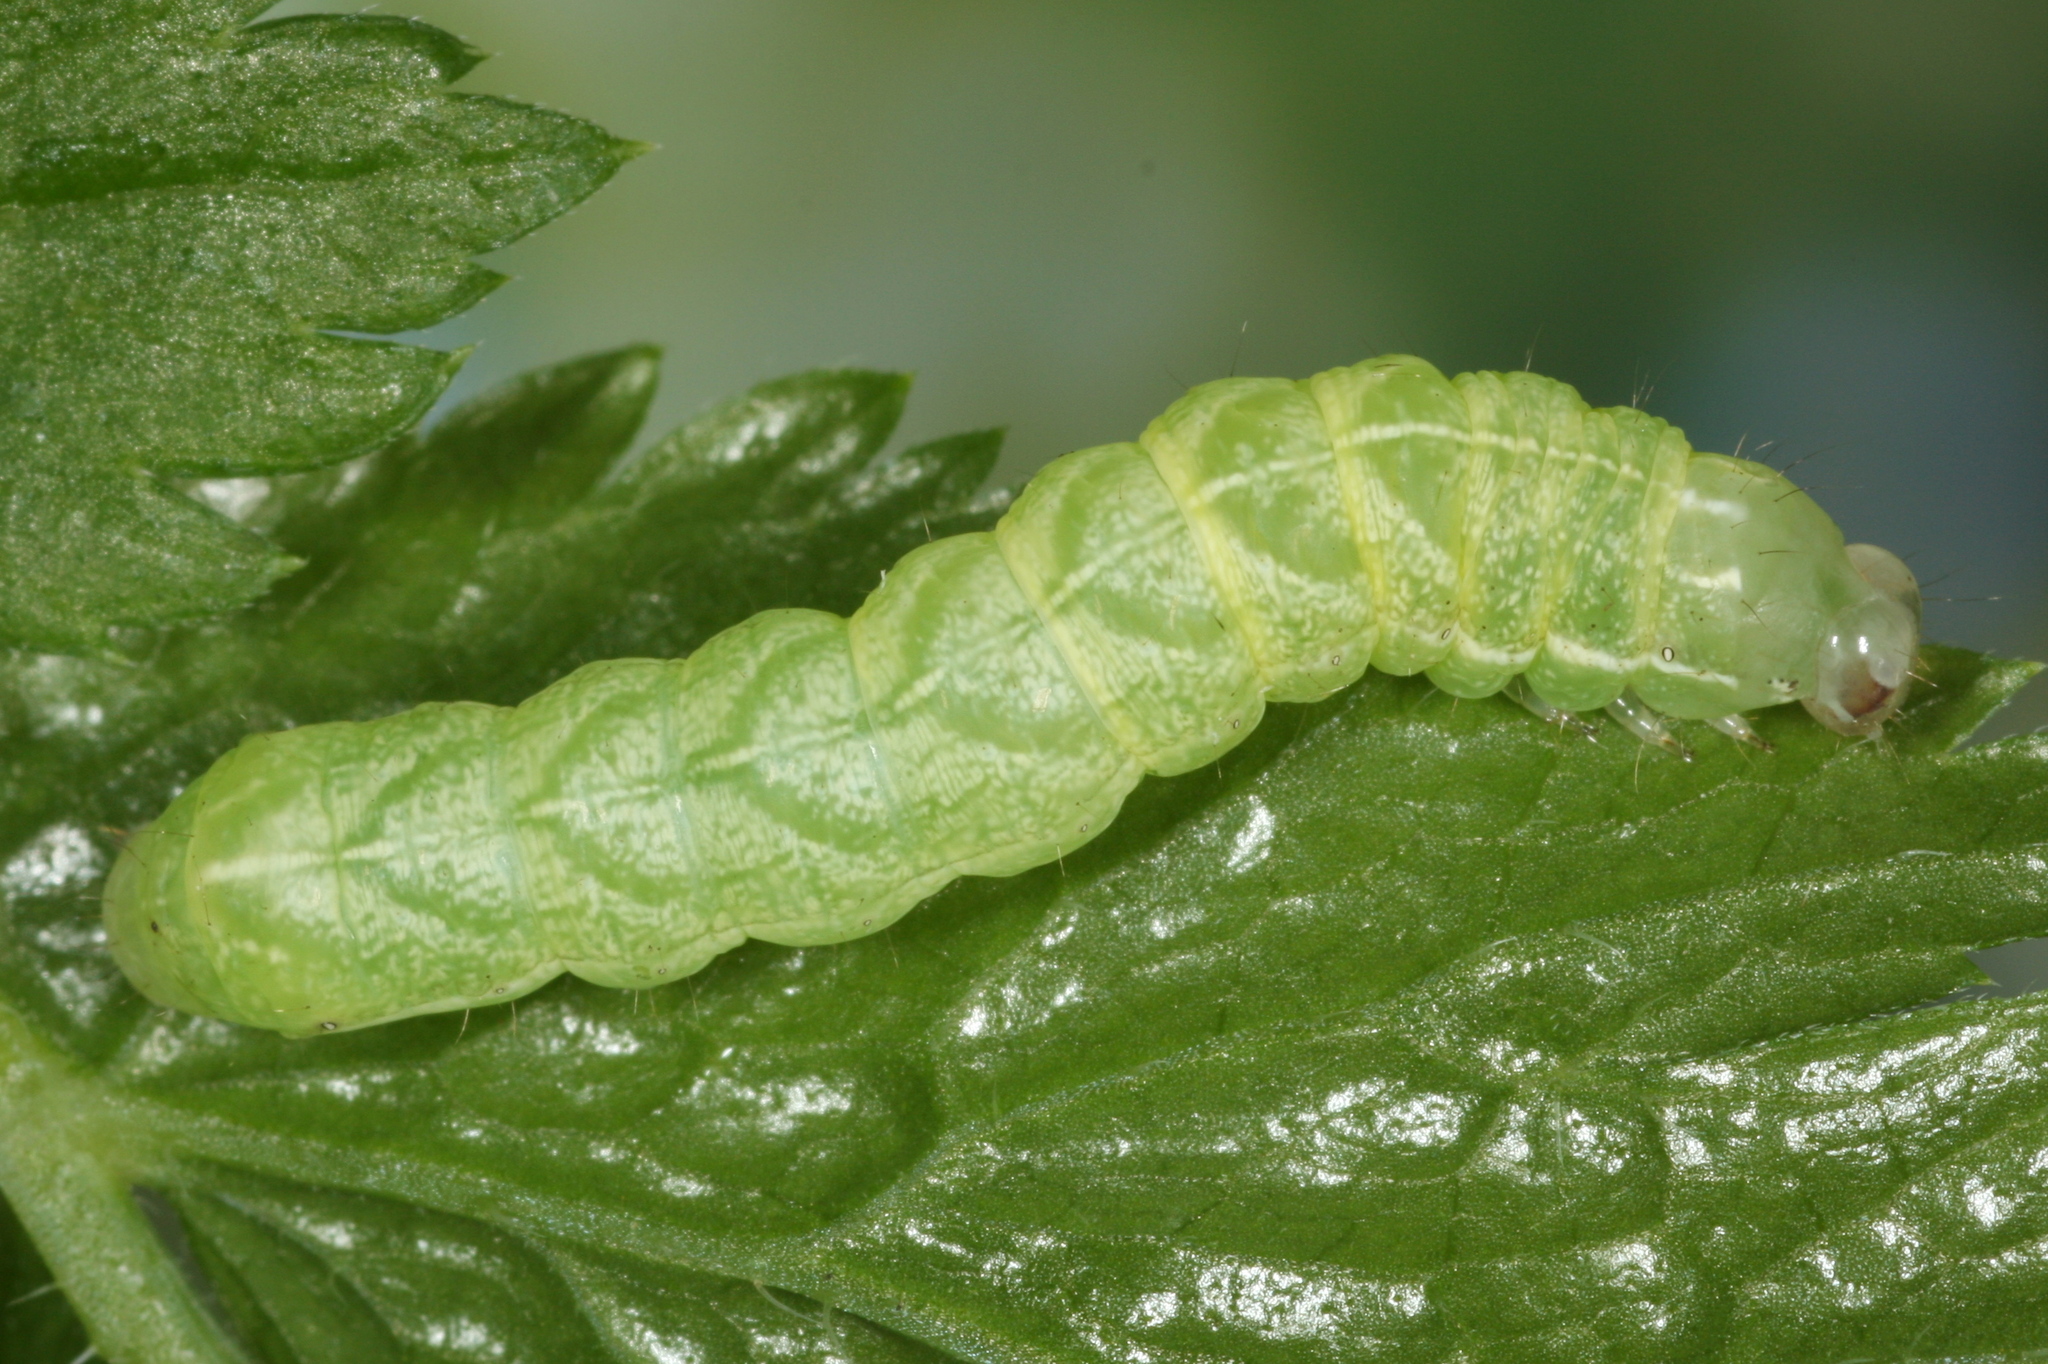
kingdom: Animalia
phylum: Arthropoda
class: Insecta
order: Lepidoptera
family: Noctuidae
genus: Melanchra
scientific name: Melanchra persicariae
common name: Dot moth
